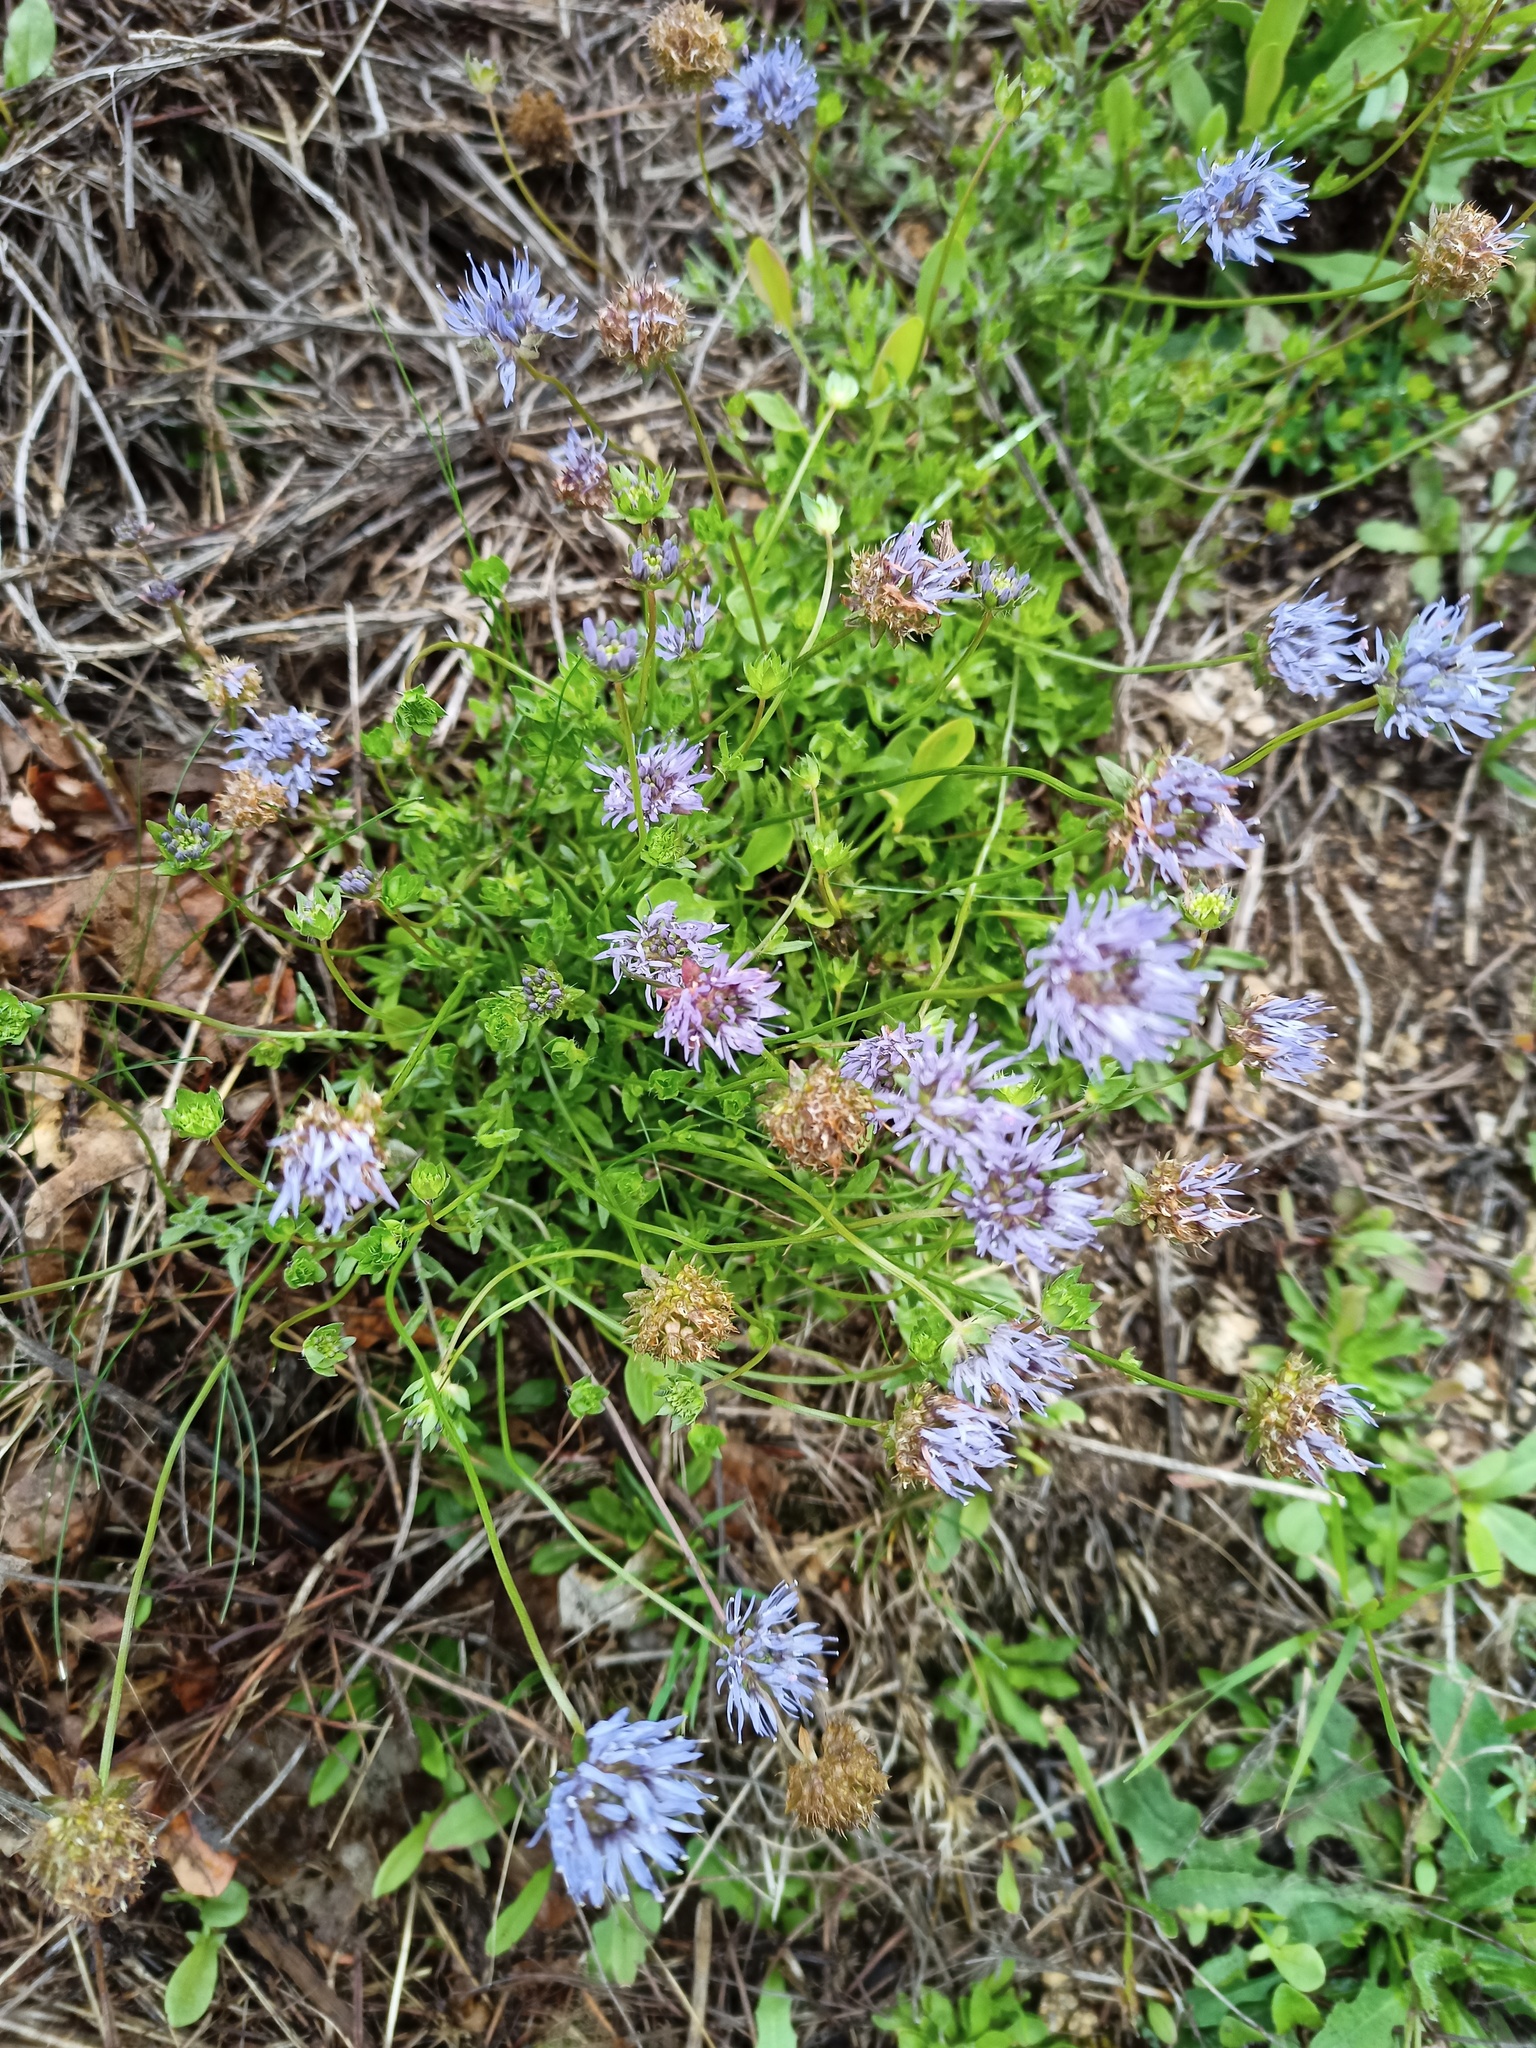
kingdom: Plantae
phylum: Tracheophyta
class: Magnoliopsida
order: Asterales
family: Campanulaceae
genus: Jasione
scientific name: Jasione montana
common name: Sheep's-bit
